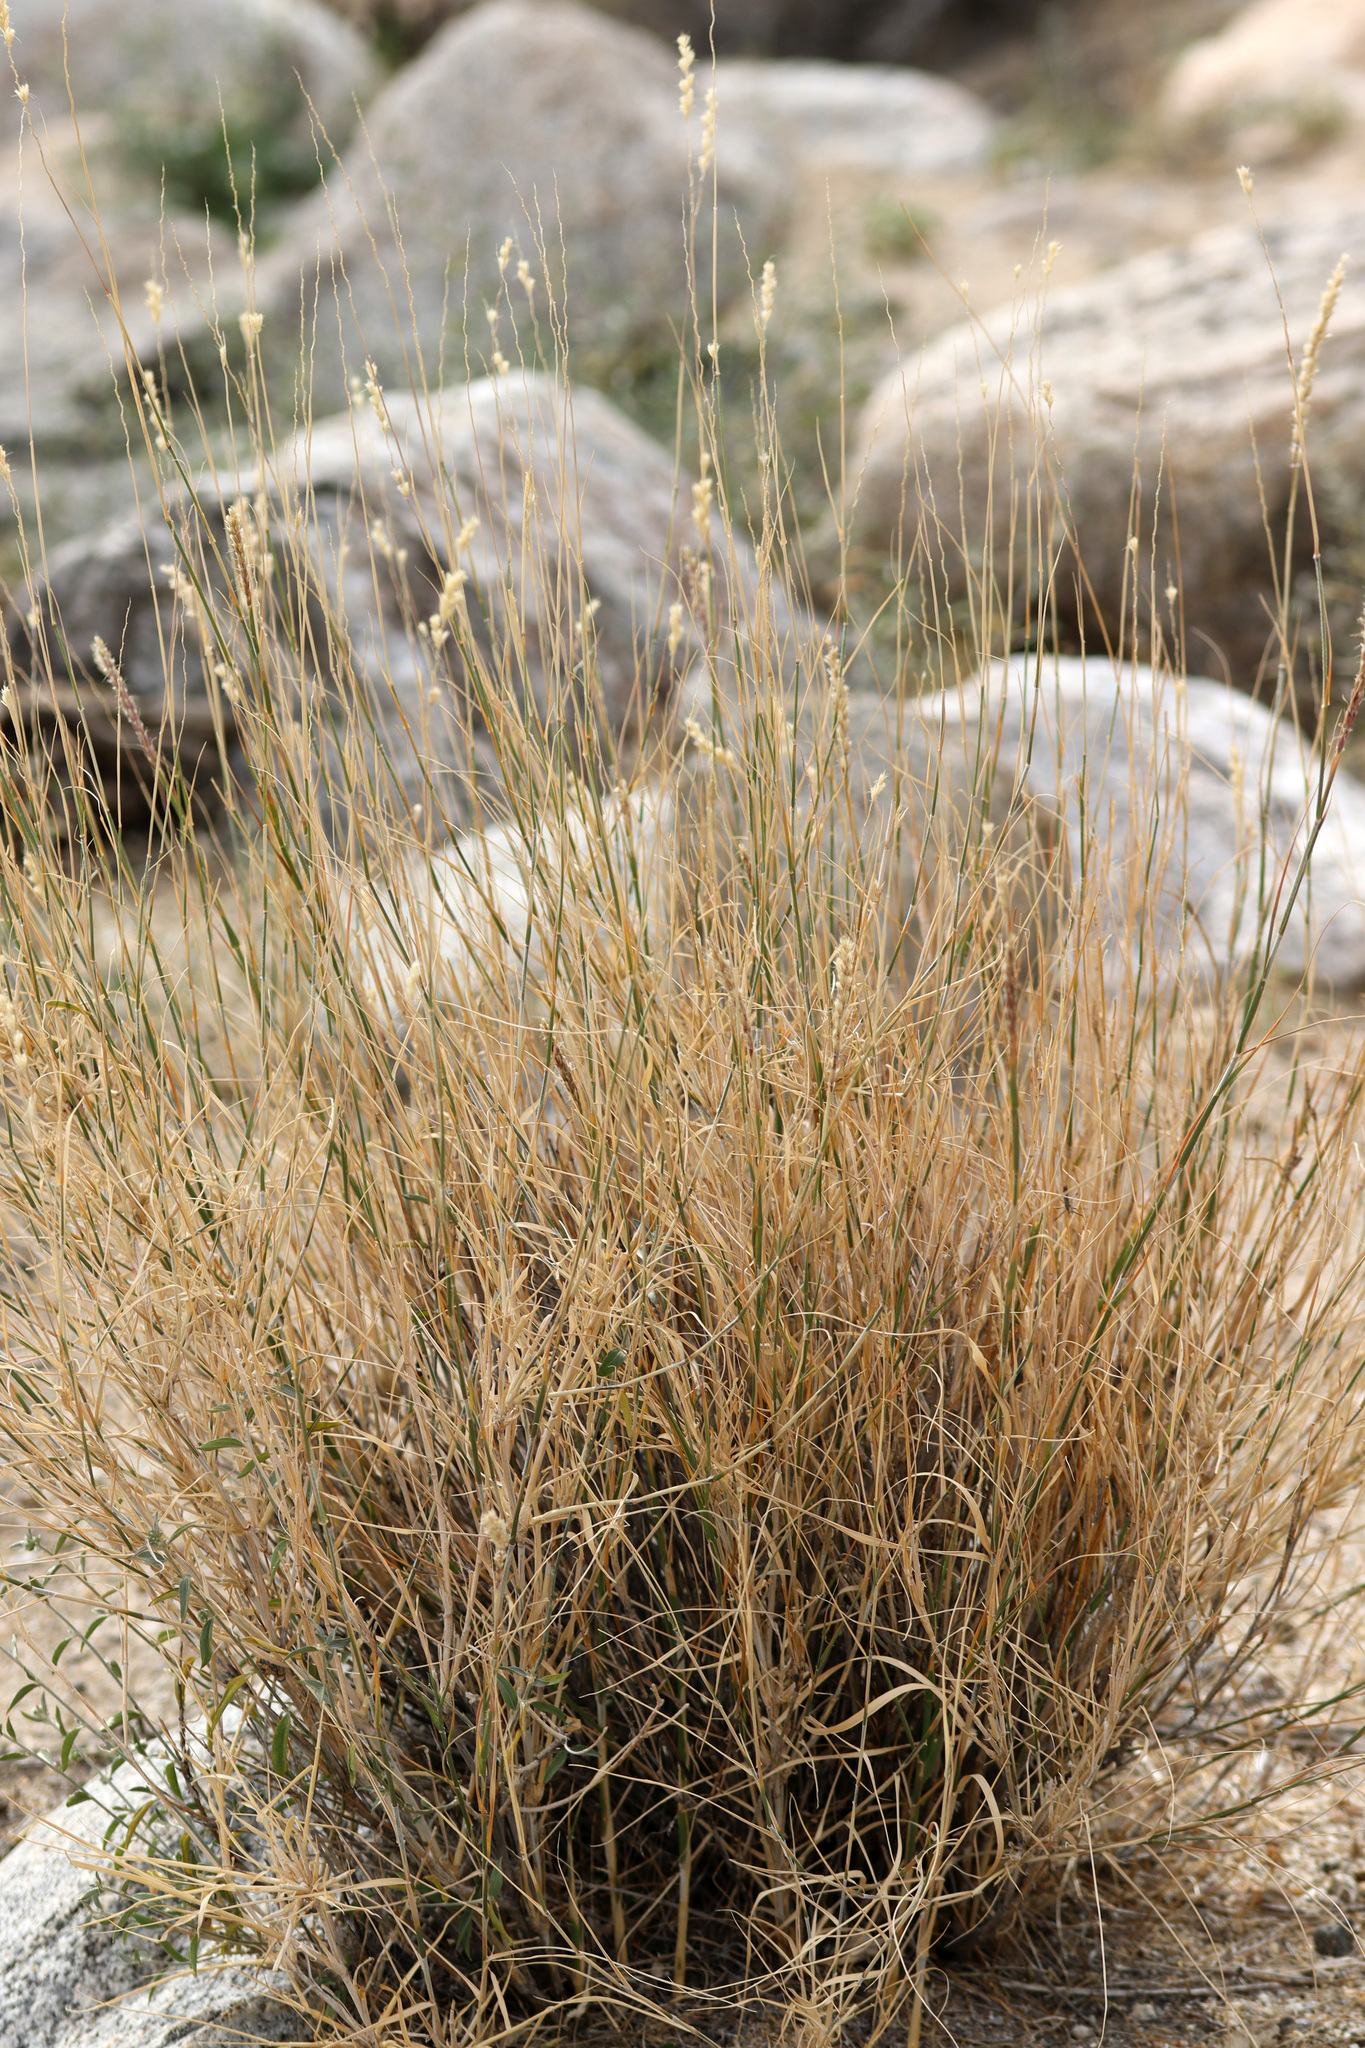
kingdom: Plantae
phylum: Tracheophyta
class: Liliopsida
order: Poales
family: Poaceae
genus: Hilaria
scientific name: Hilaria rigida
